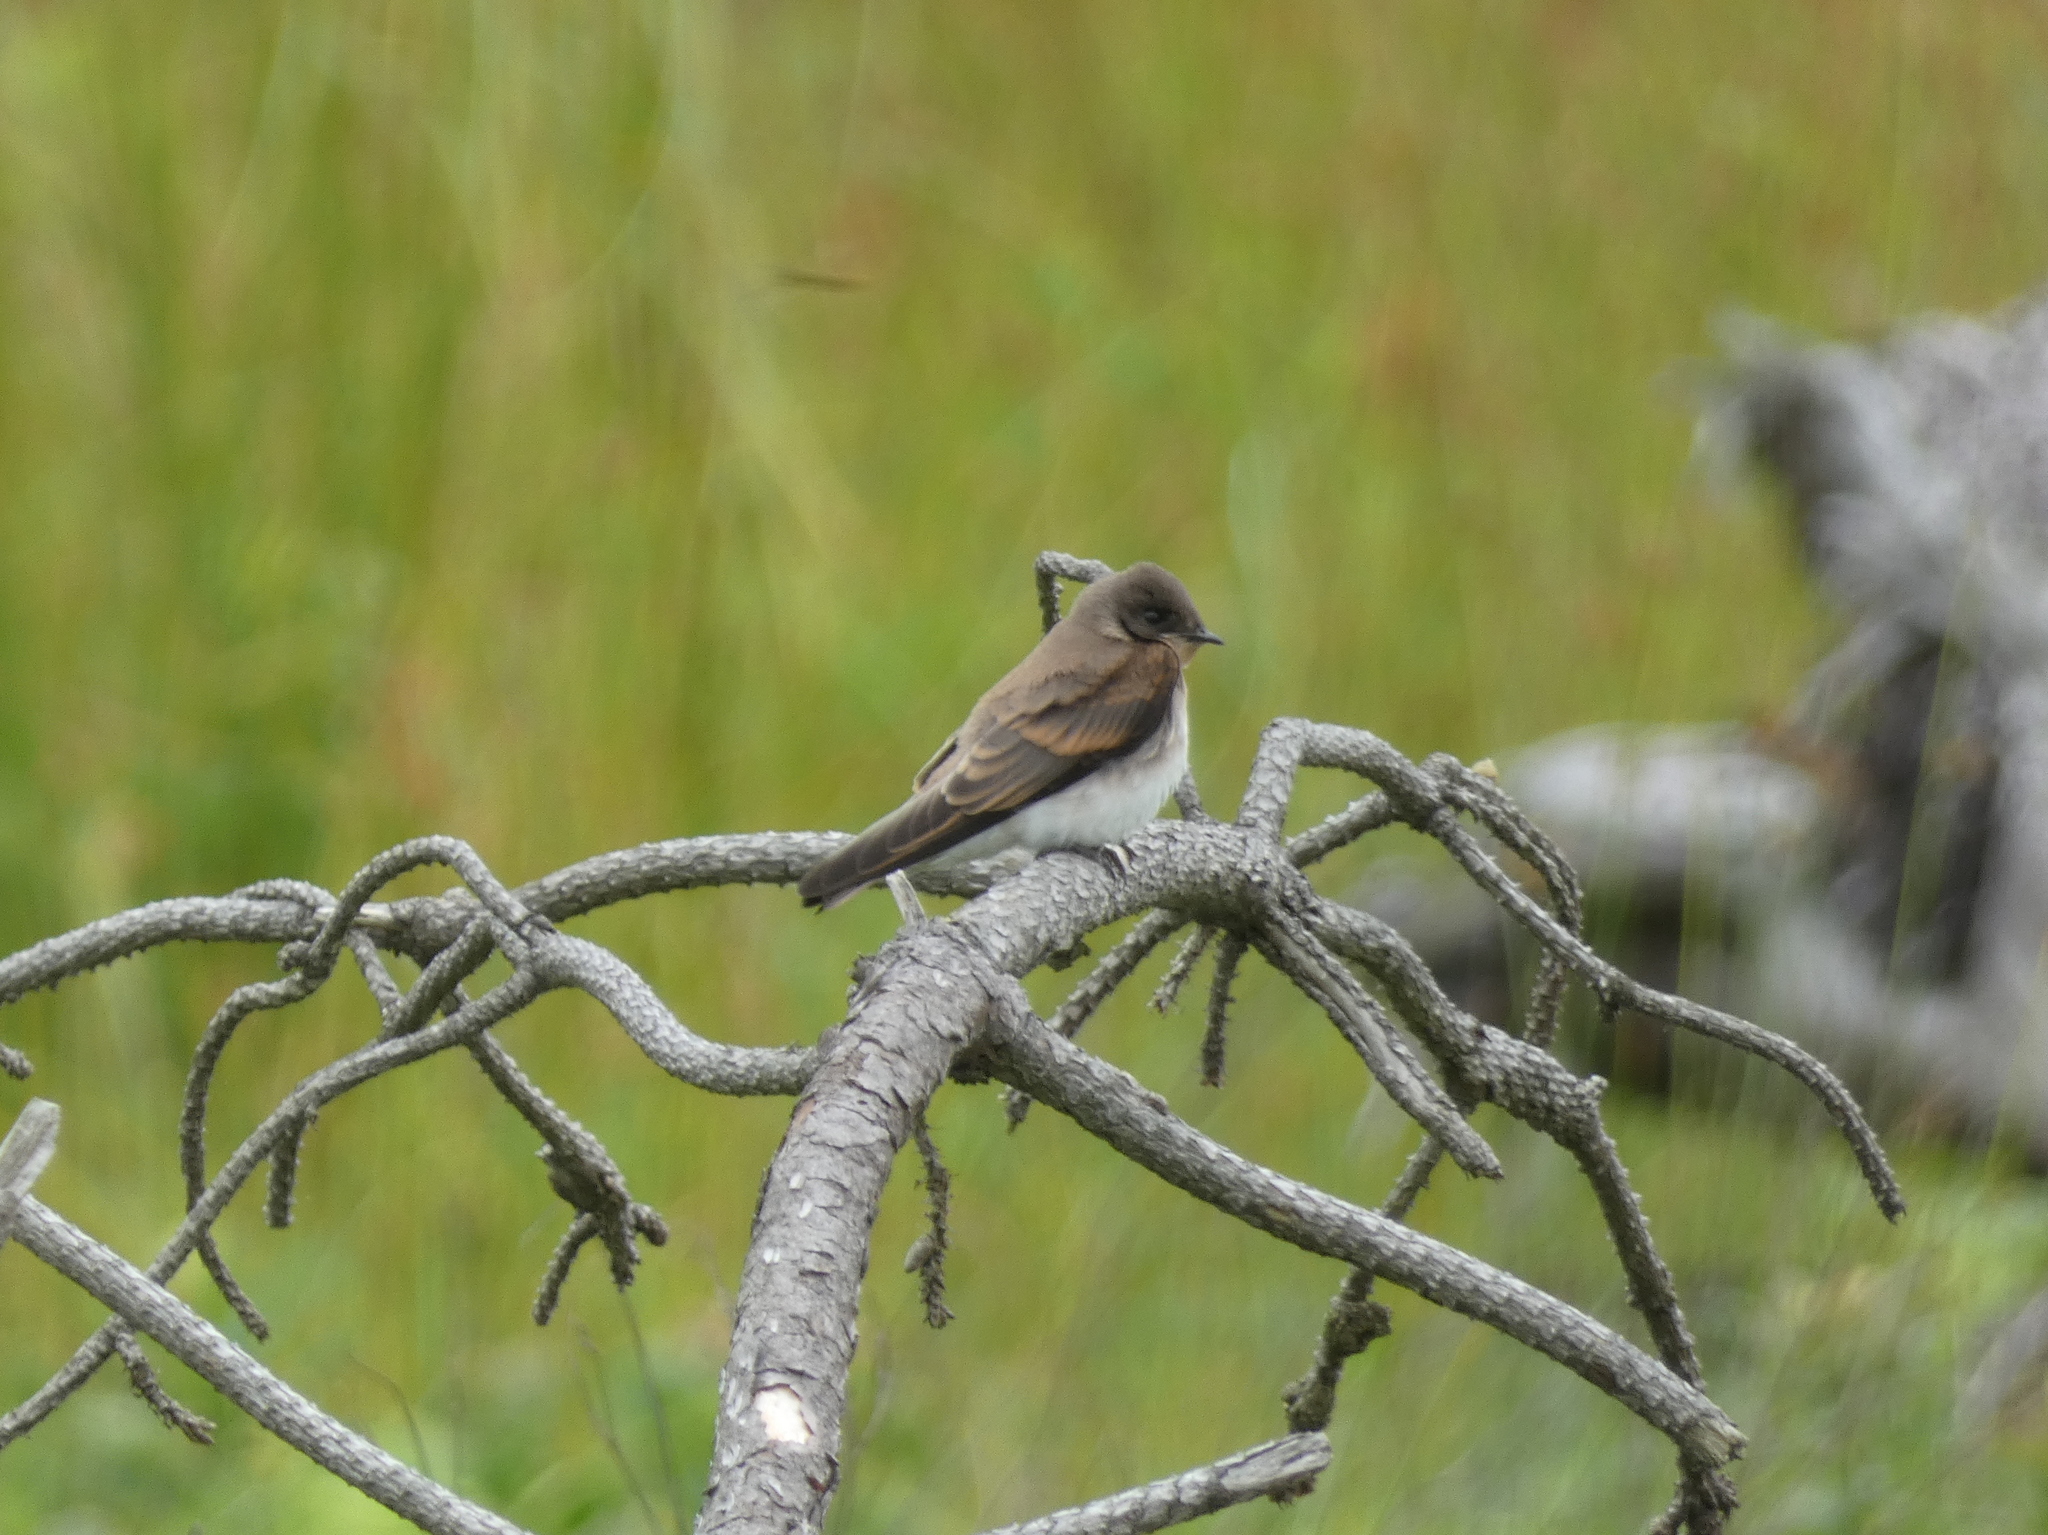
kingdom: Animalia
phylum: Chordata
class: Aves
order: Passeriformes
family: Hirundinidae
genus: Stelgidopteryx
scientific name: Stelgidopteryx serripennis
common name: Northern rough-winged swallow
